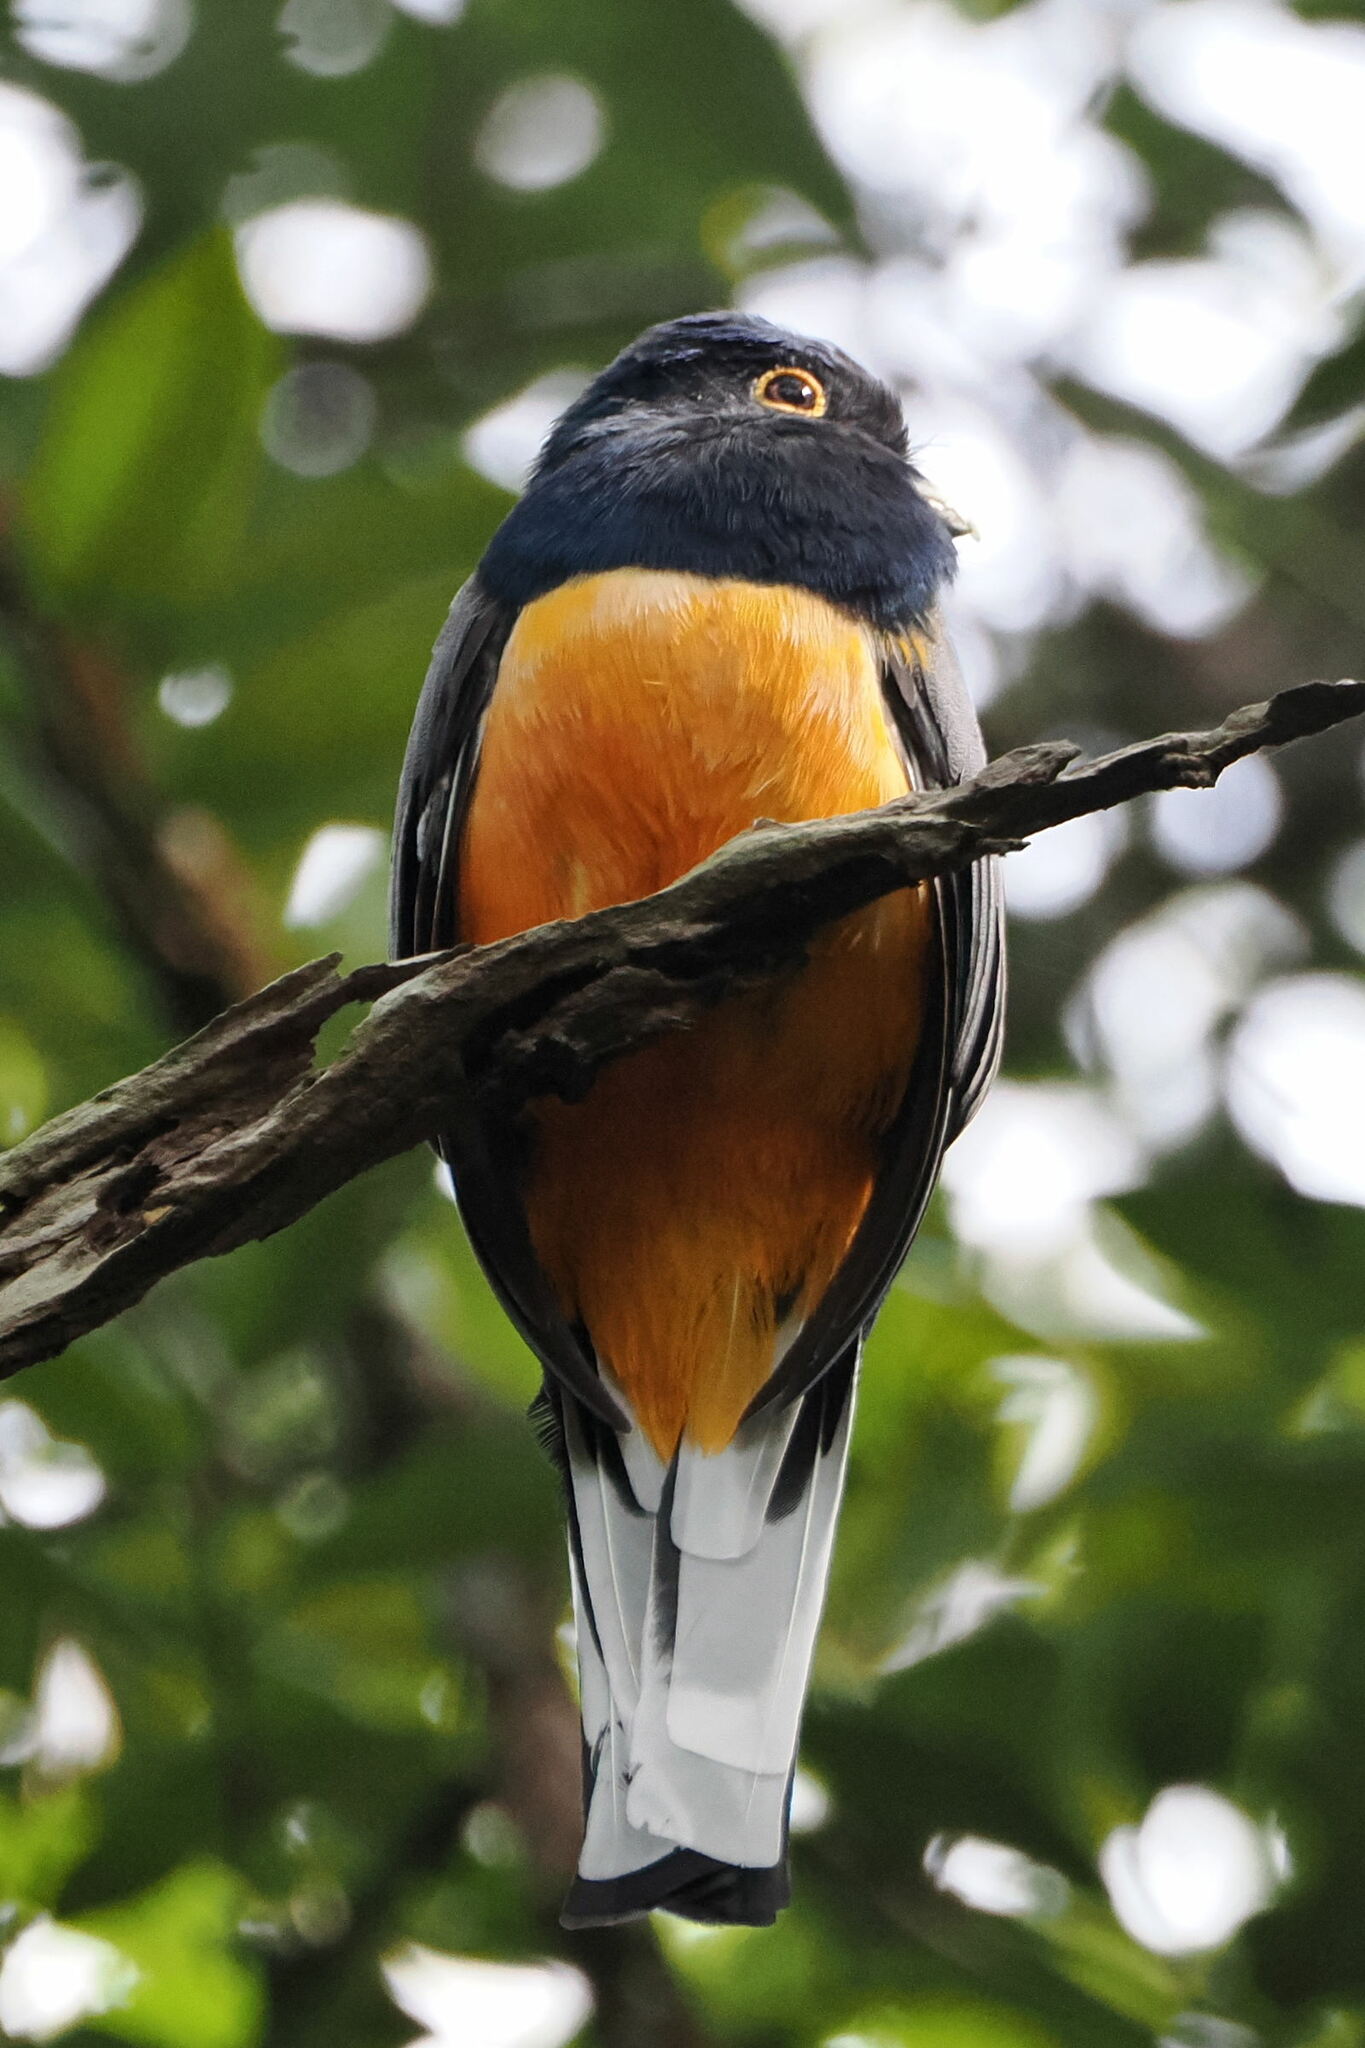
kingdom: Animalia
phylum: Chordata
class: Aves
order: Trogoniformes
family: Trogonidae
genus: Trogon
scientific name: Trogon surrucura
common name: Surucua trogon
